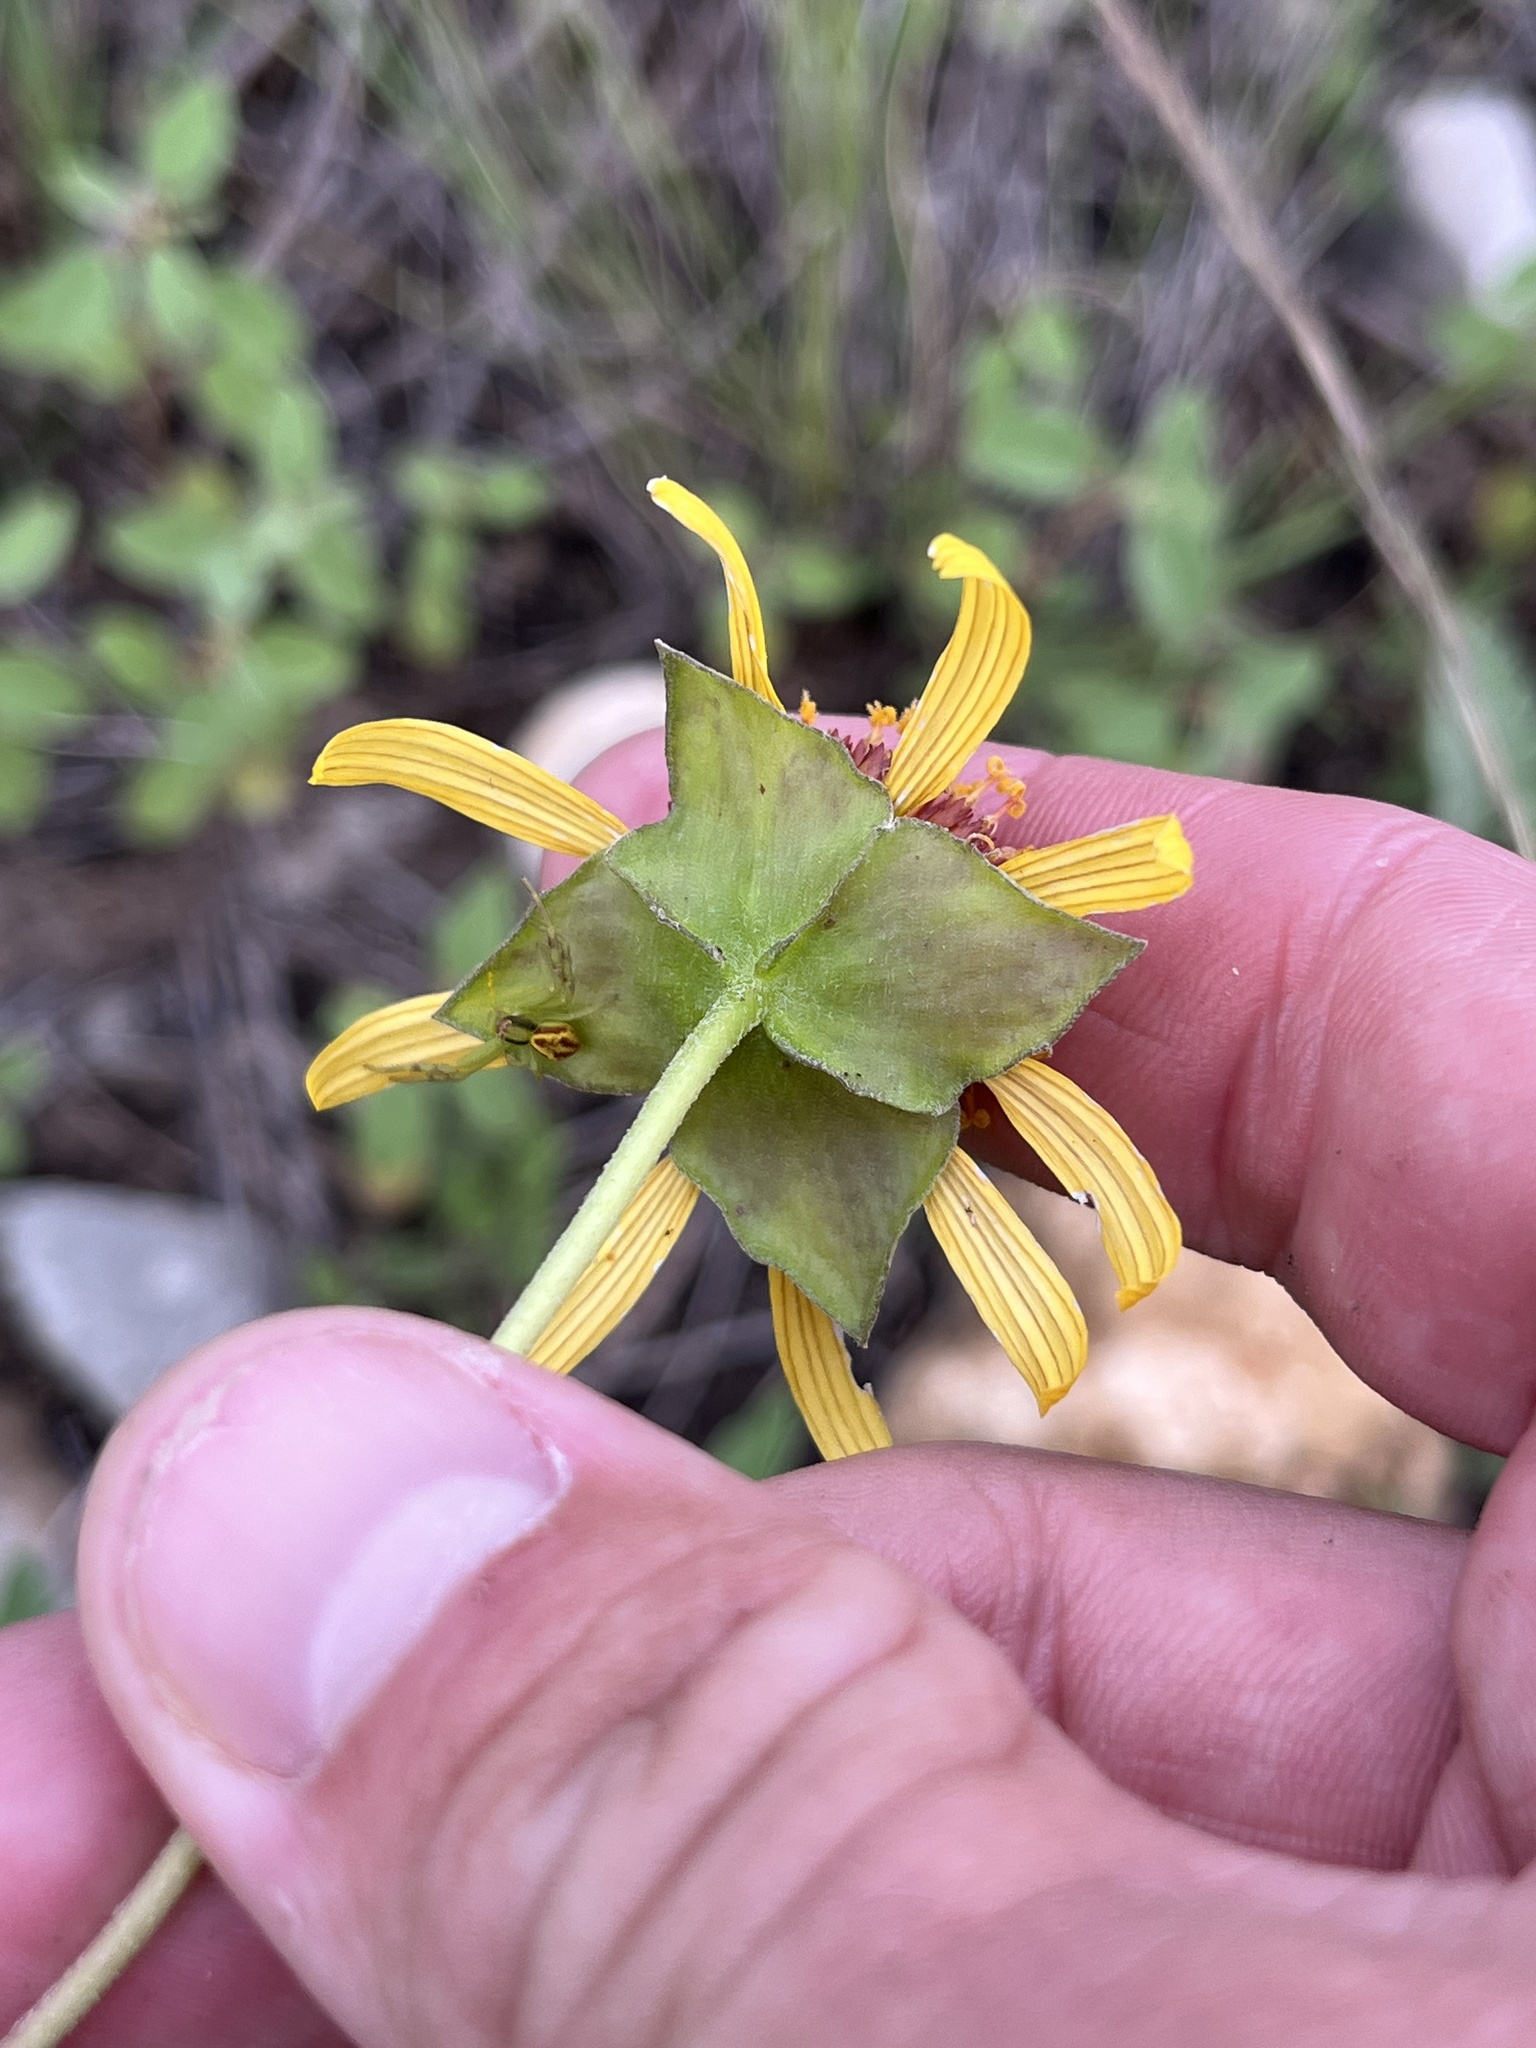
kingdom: Plantae
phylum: Tracheophyta
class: Magnoliopsida
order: Asterales
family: Asteraceae
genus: Tetragonotheca
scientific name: Tetragonotheca texana
